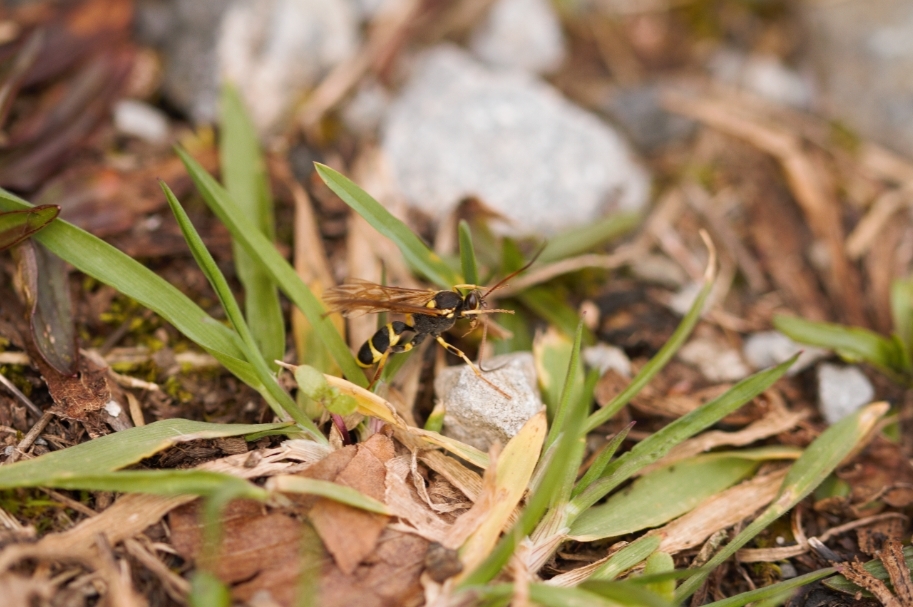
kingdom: Animalia
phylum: Arthropoda
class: Insecta
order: Hymenoptera
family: Ichneumonidae
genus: Amblyteles
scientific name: Amblyteles armatorius
